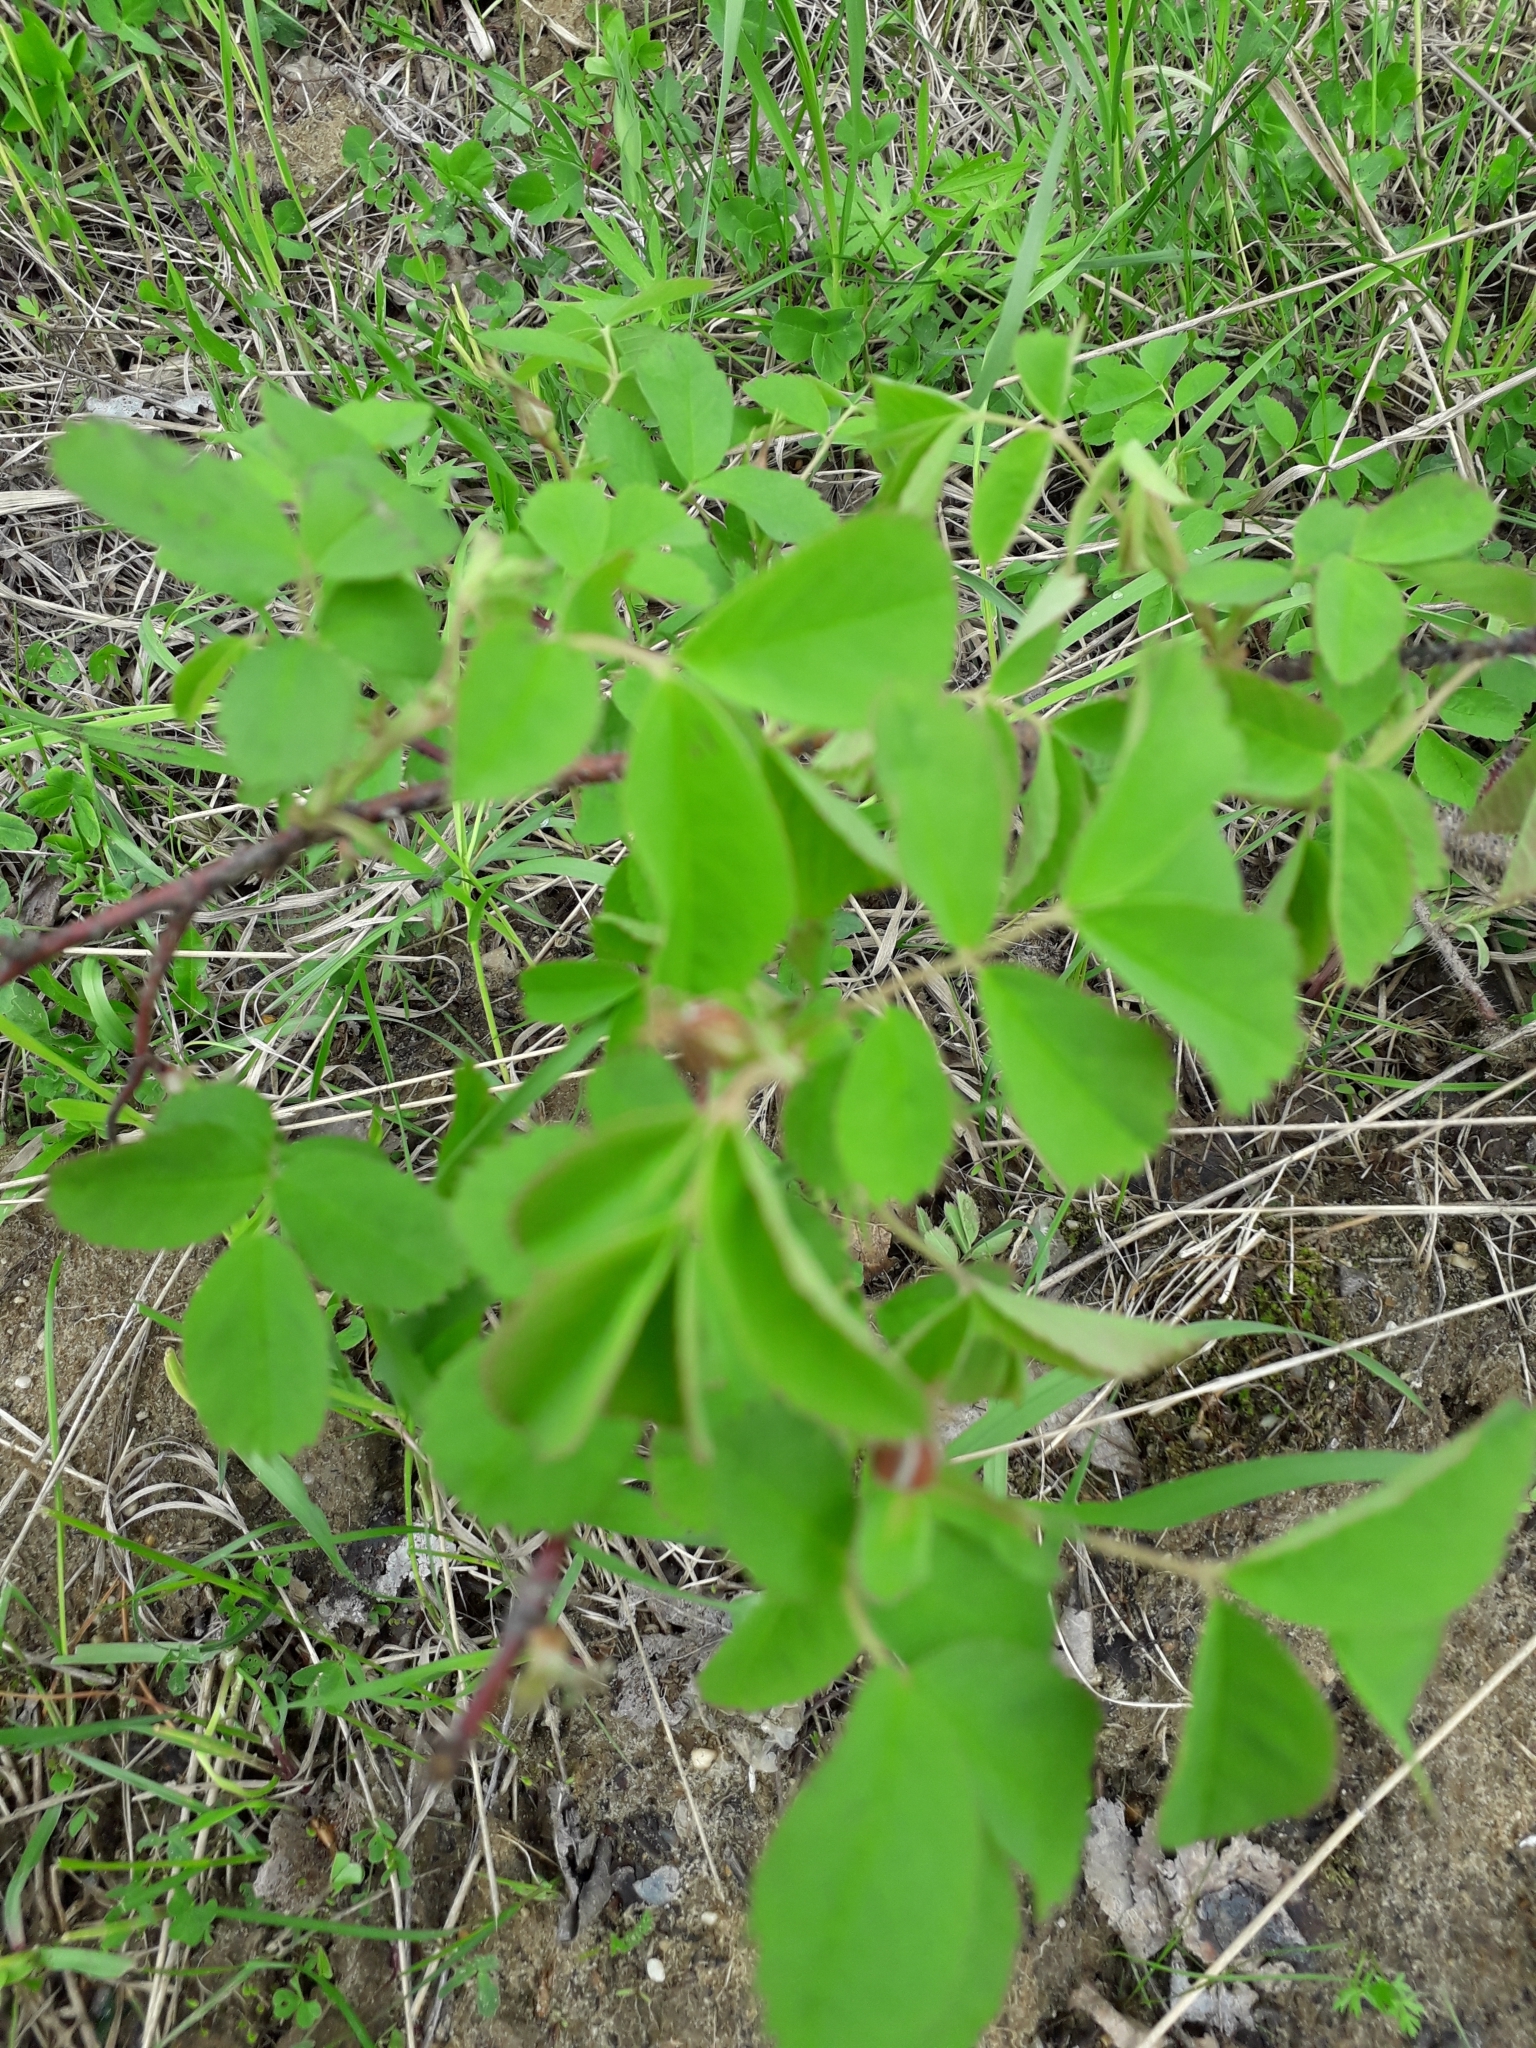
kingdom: Plantae
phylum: Tracheophyta
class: Magnoliopsida
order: Rosales
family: Rosaceae
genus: Rosa
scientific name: Rosa
